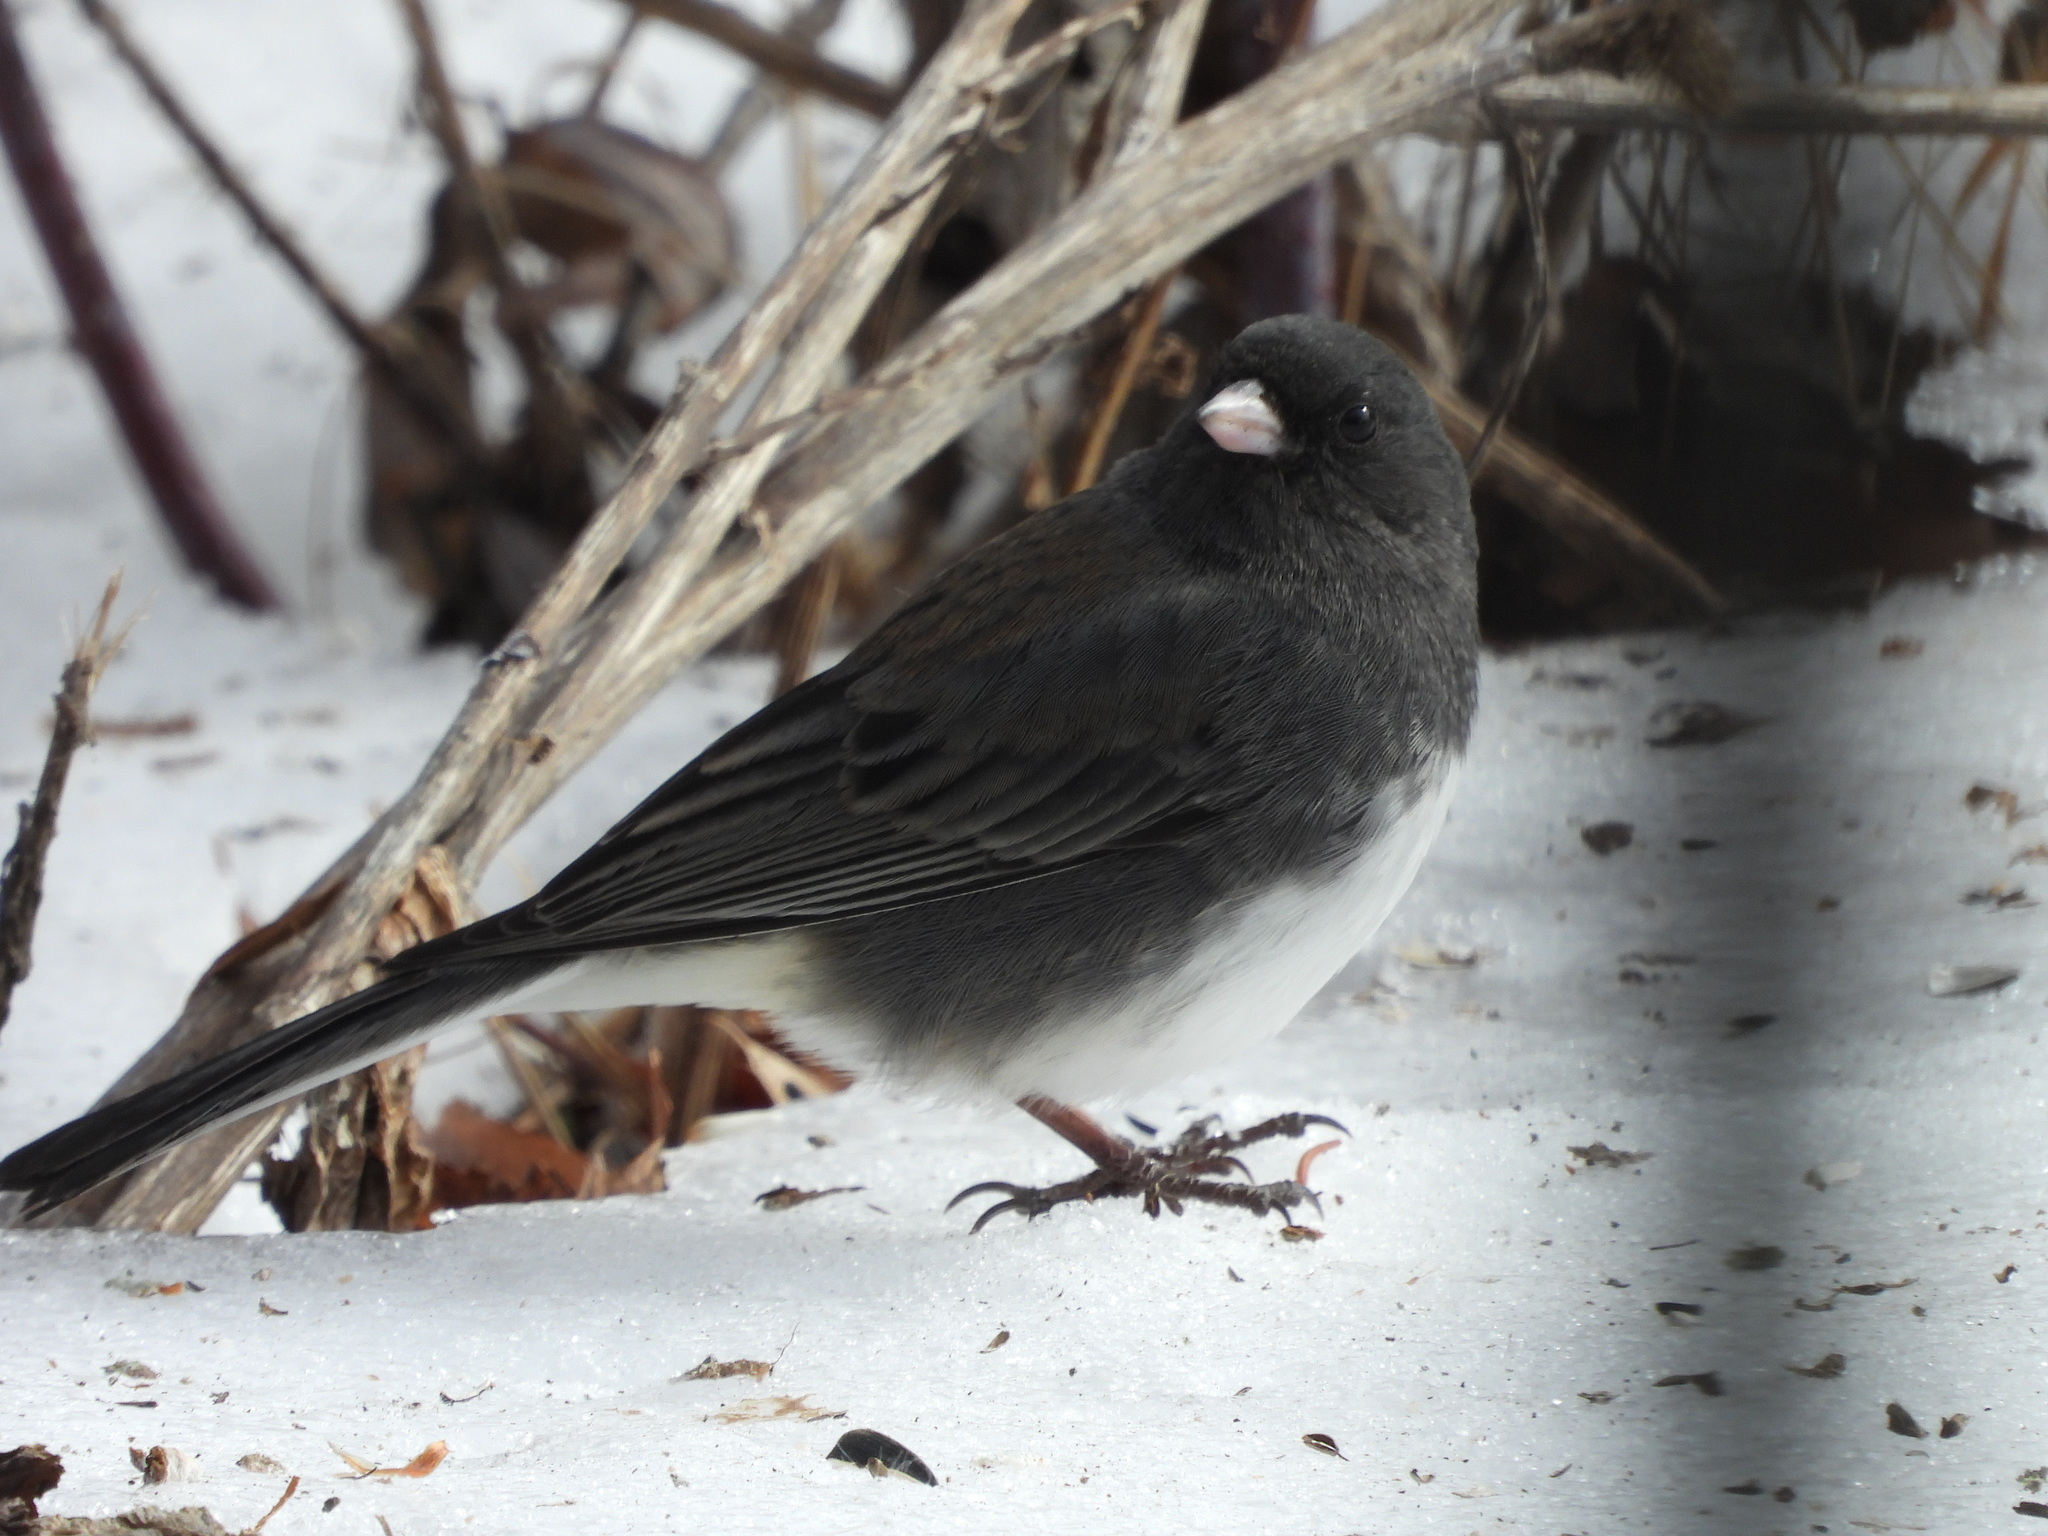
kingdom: Animalia
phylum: Chordata
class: Aves
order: Passeriformes
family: Passerellidae
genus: Junco
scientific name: Junco hyemalis
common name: Dark-eyed junco
